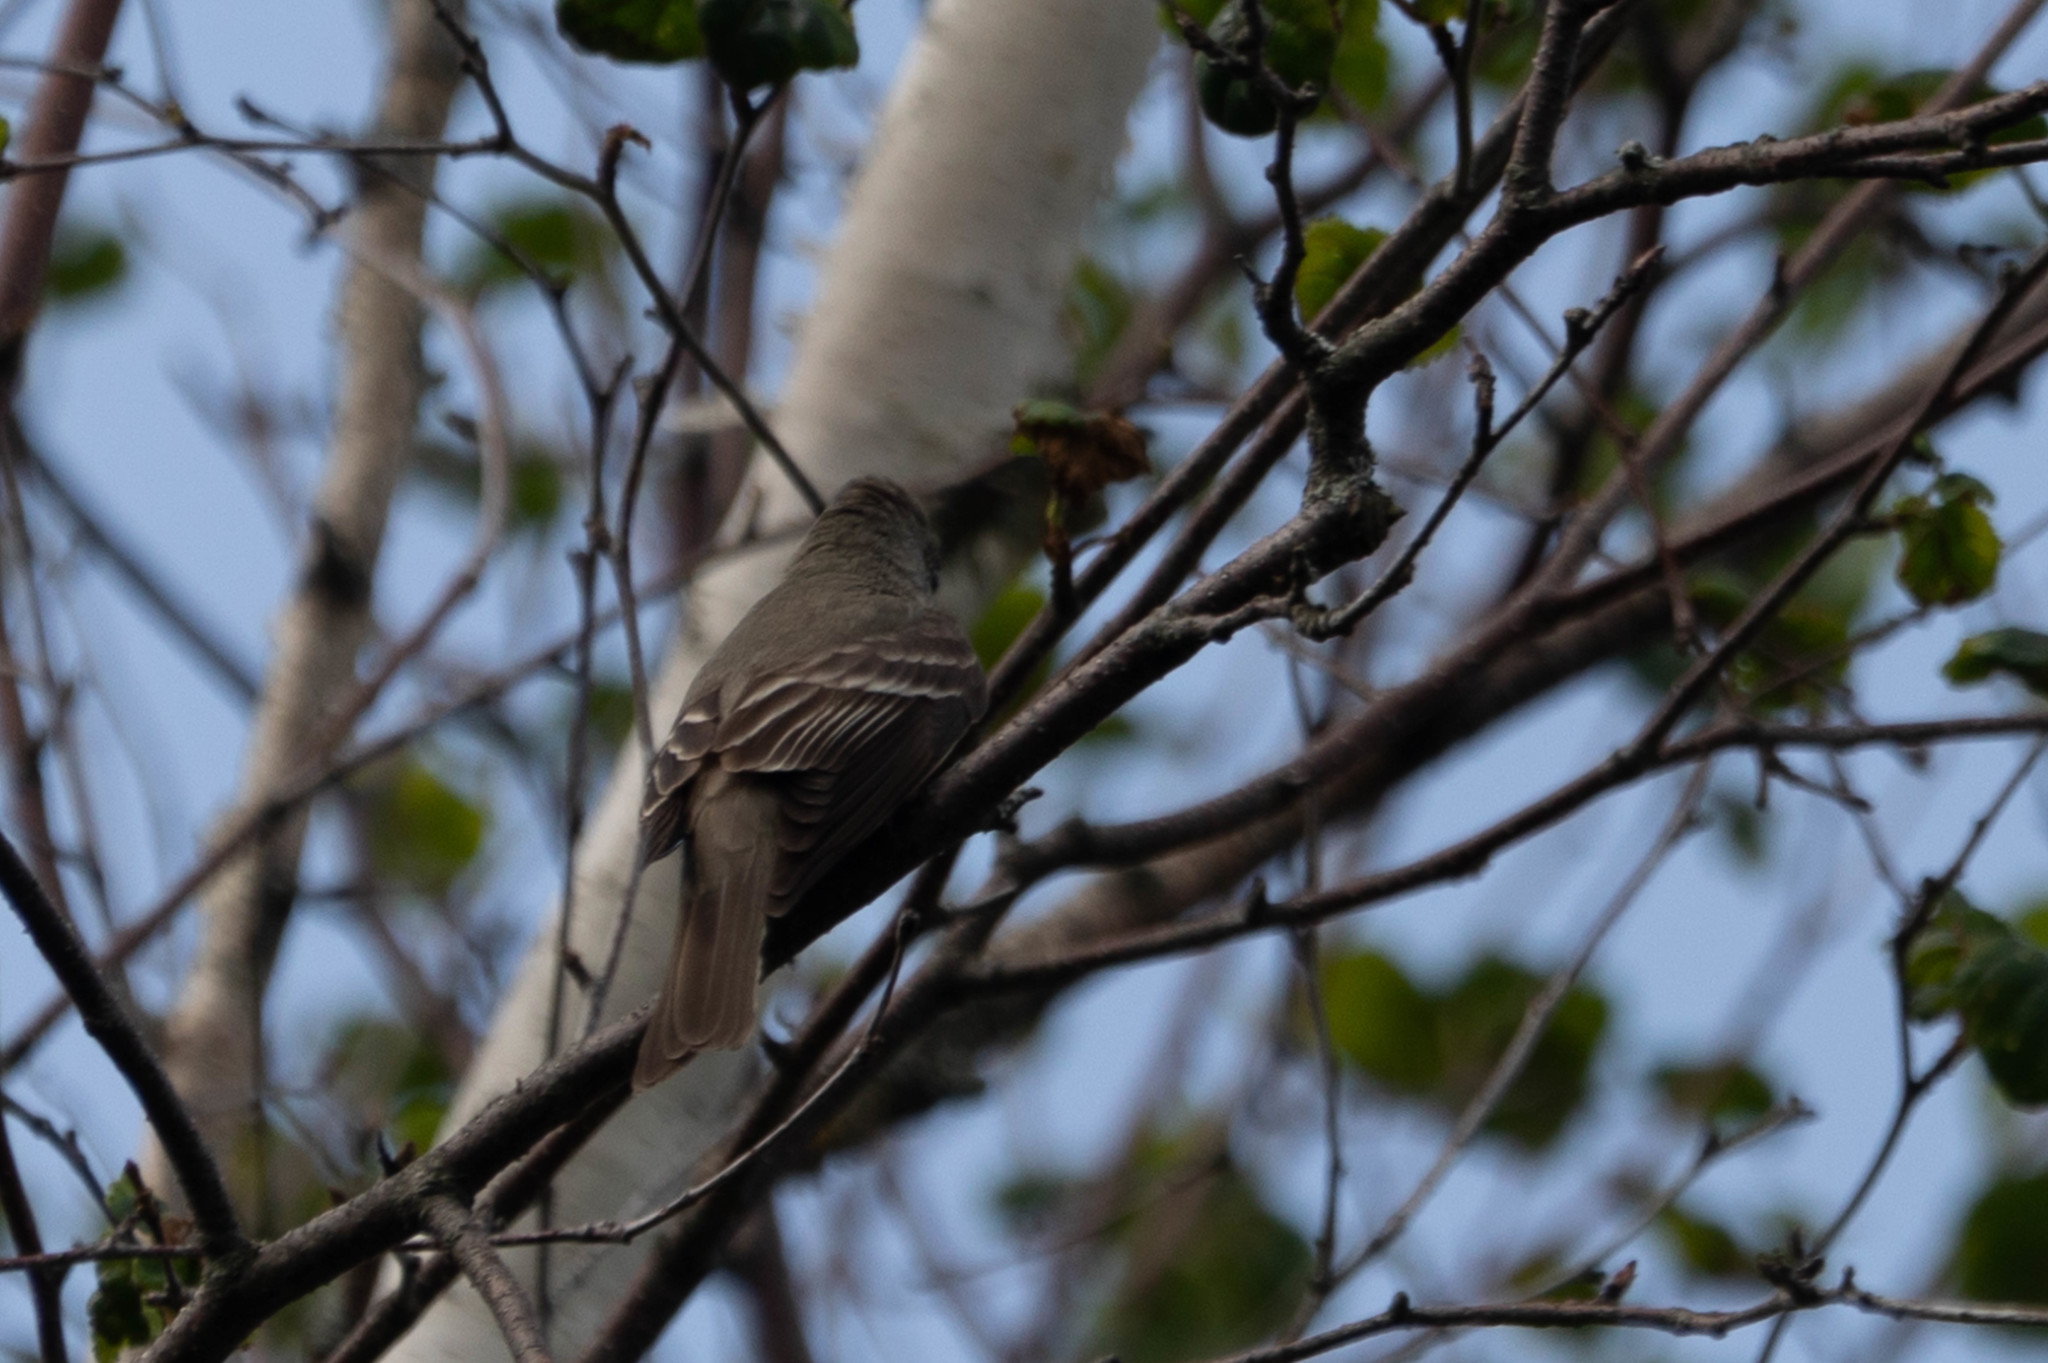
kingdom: Animalia
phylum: Chordata
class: Aves
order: Passeriformes
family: Tyrannidae
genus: Contopus
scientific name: Contopus virens
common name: Eastern wood-pewee
